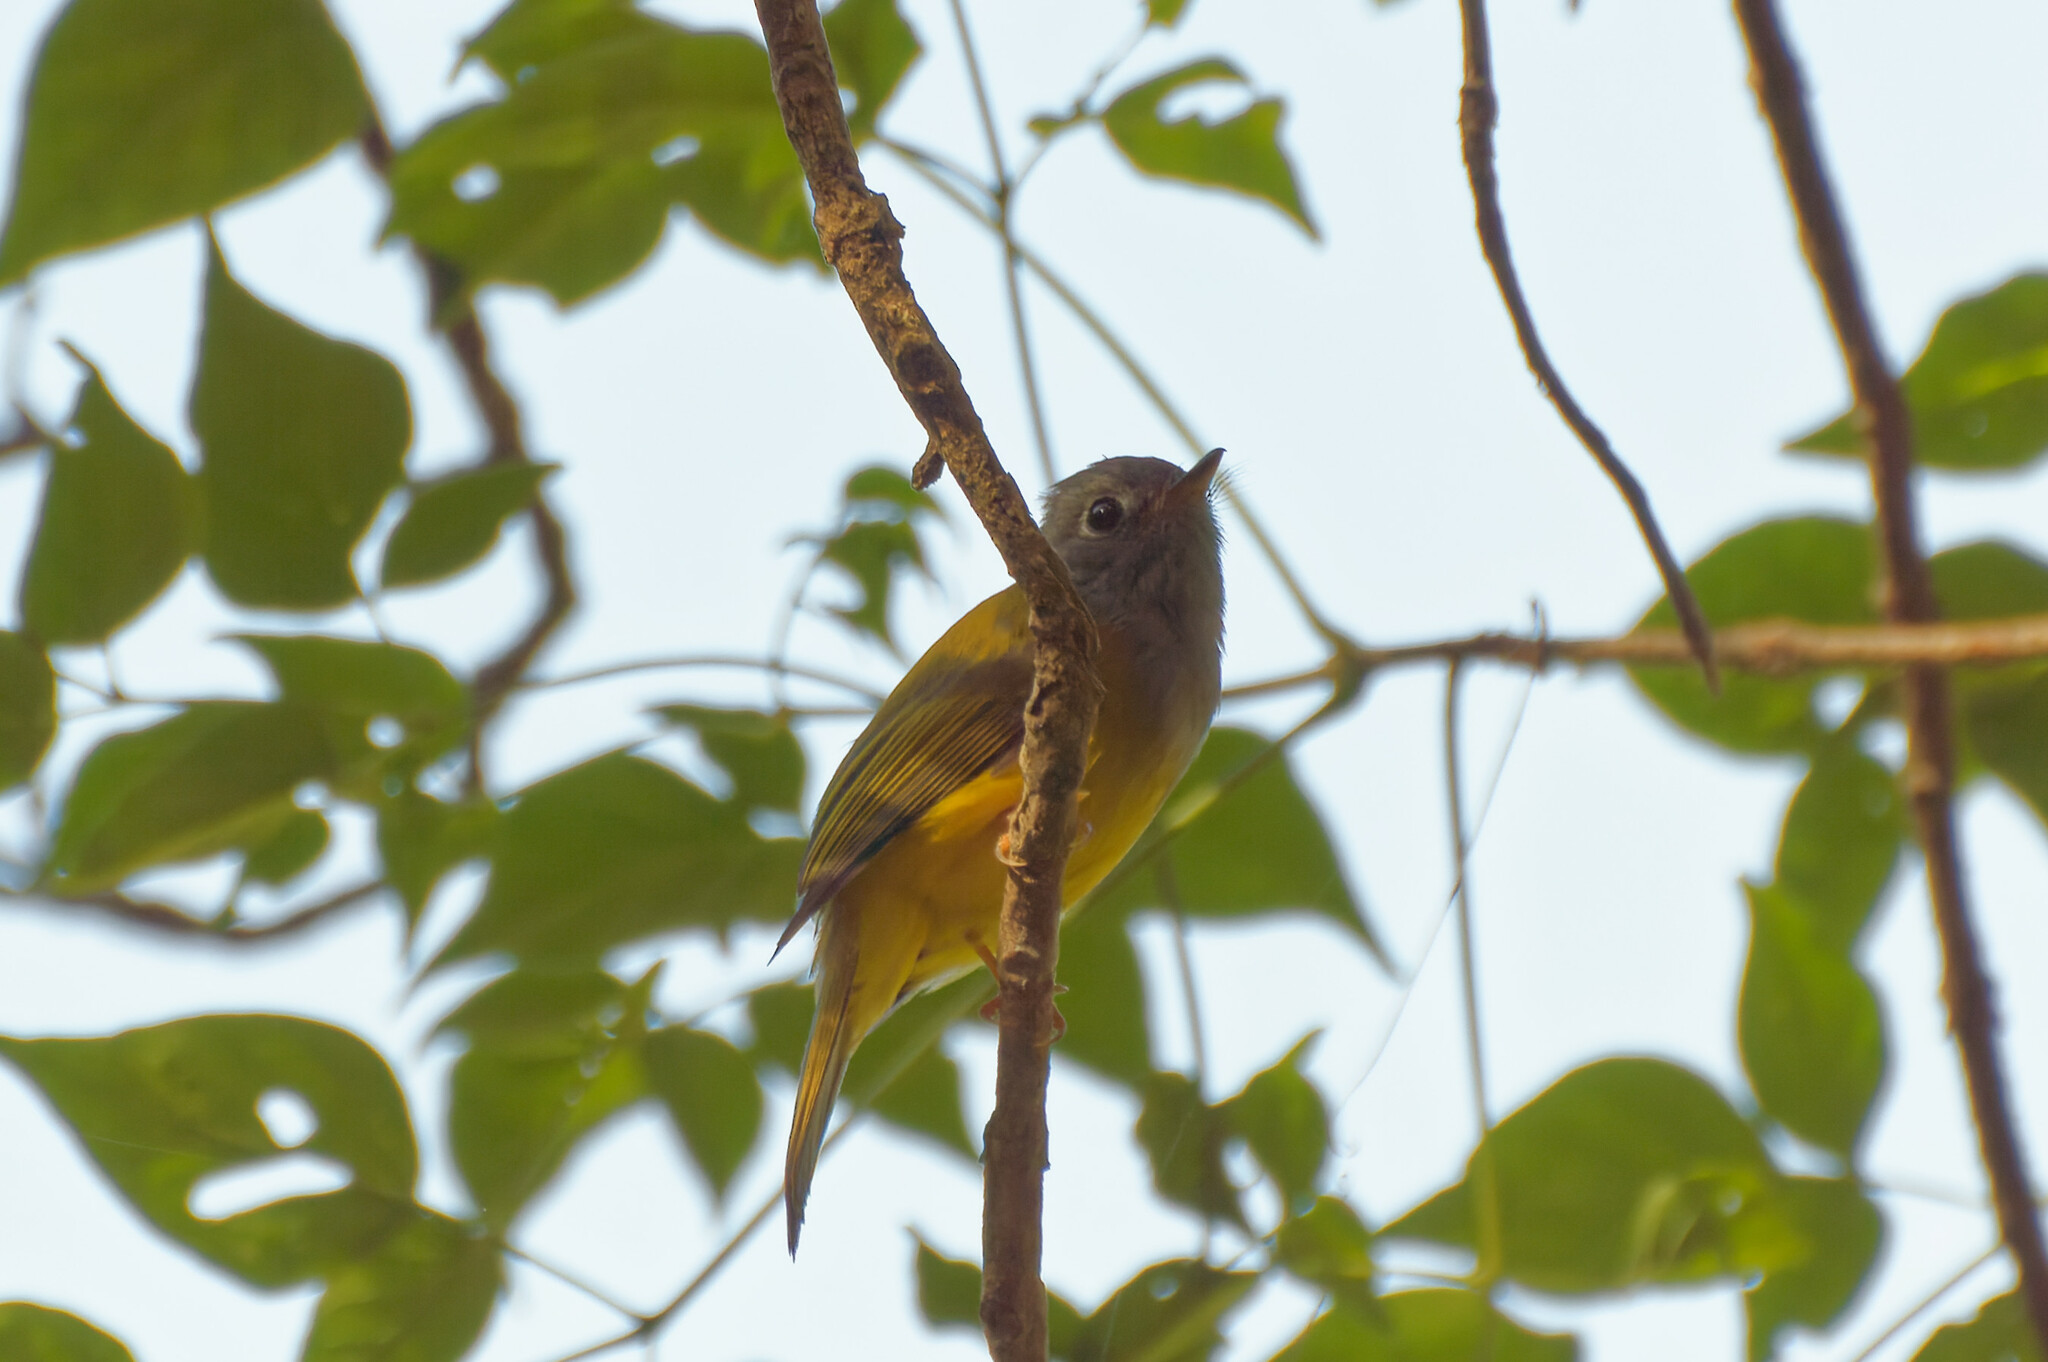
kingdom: Animalia
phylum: Chordata
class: Aves
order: Passeriformes
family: Stenostiridae
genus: Culicicapa
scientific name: Culicicapa ceylonensis
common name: Grey-headed canary-flycatcher
